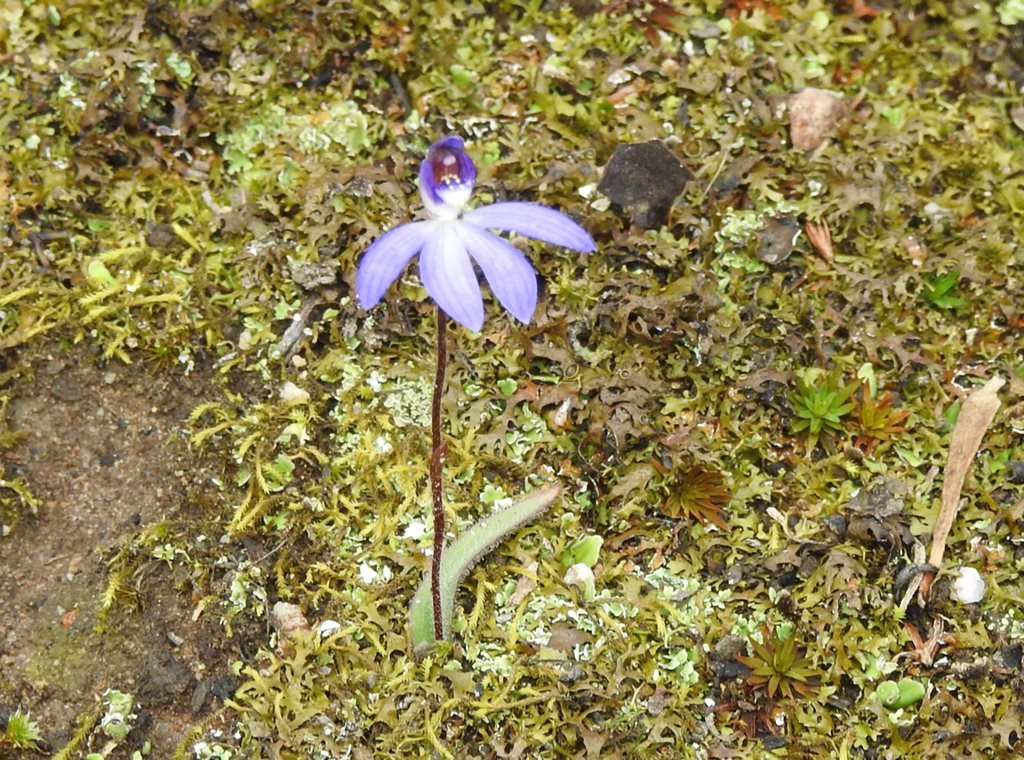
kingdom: Plantae
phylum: Tracheophyta
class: Liliopsida
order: Asparagales
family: Orchidaceae
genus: Caladenia
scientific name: Caladenia caerulea
